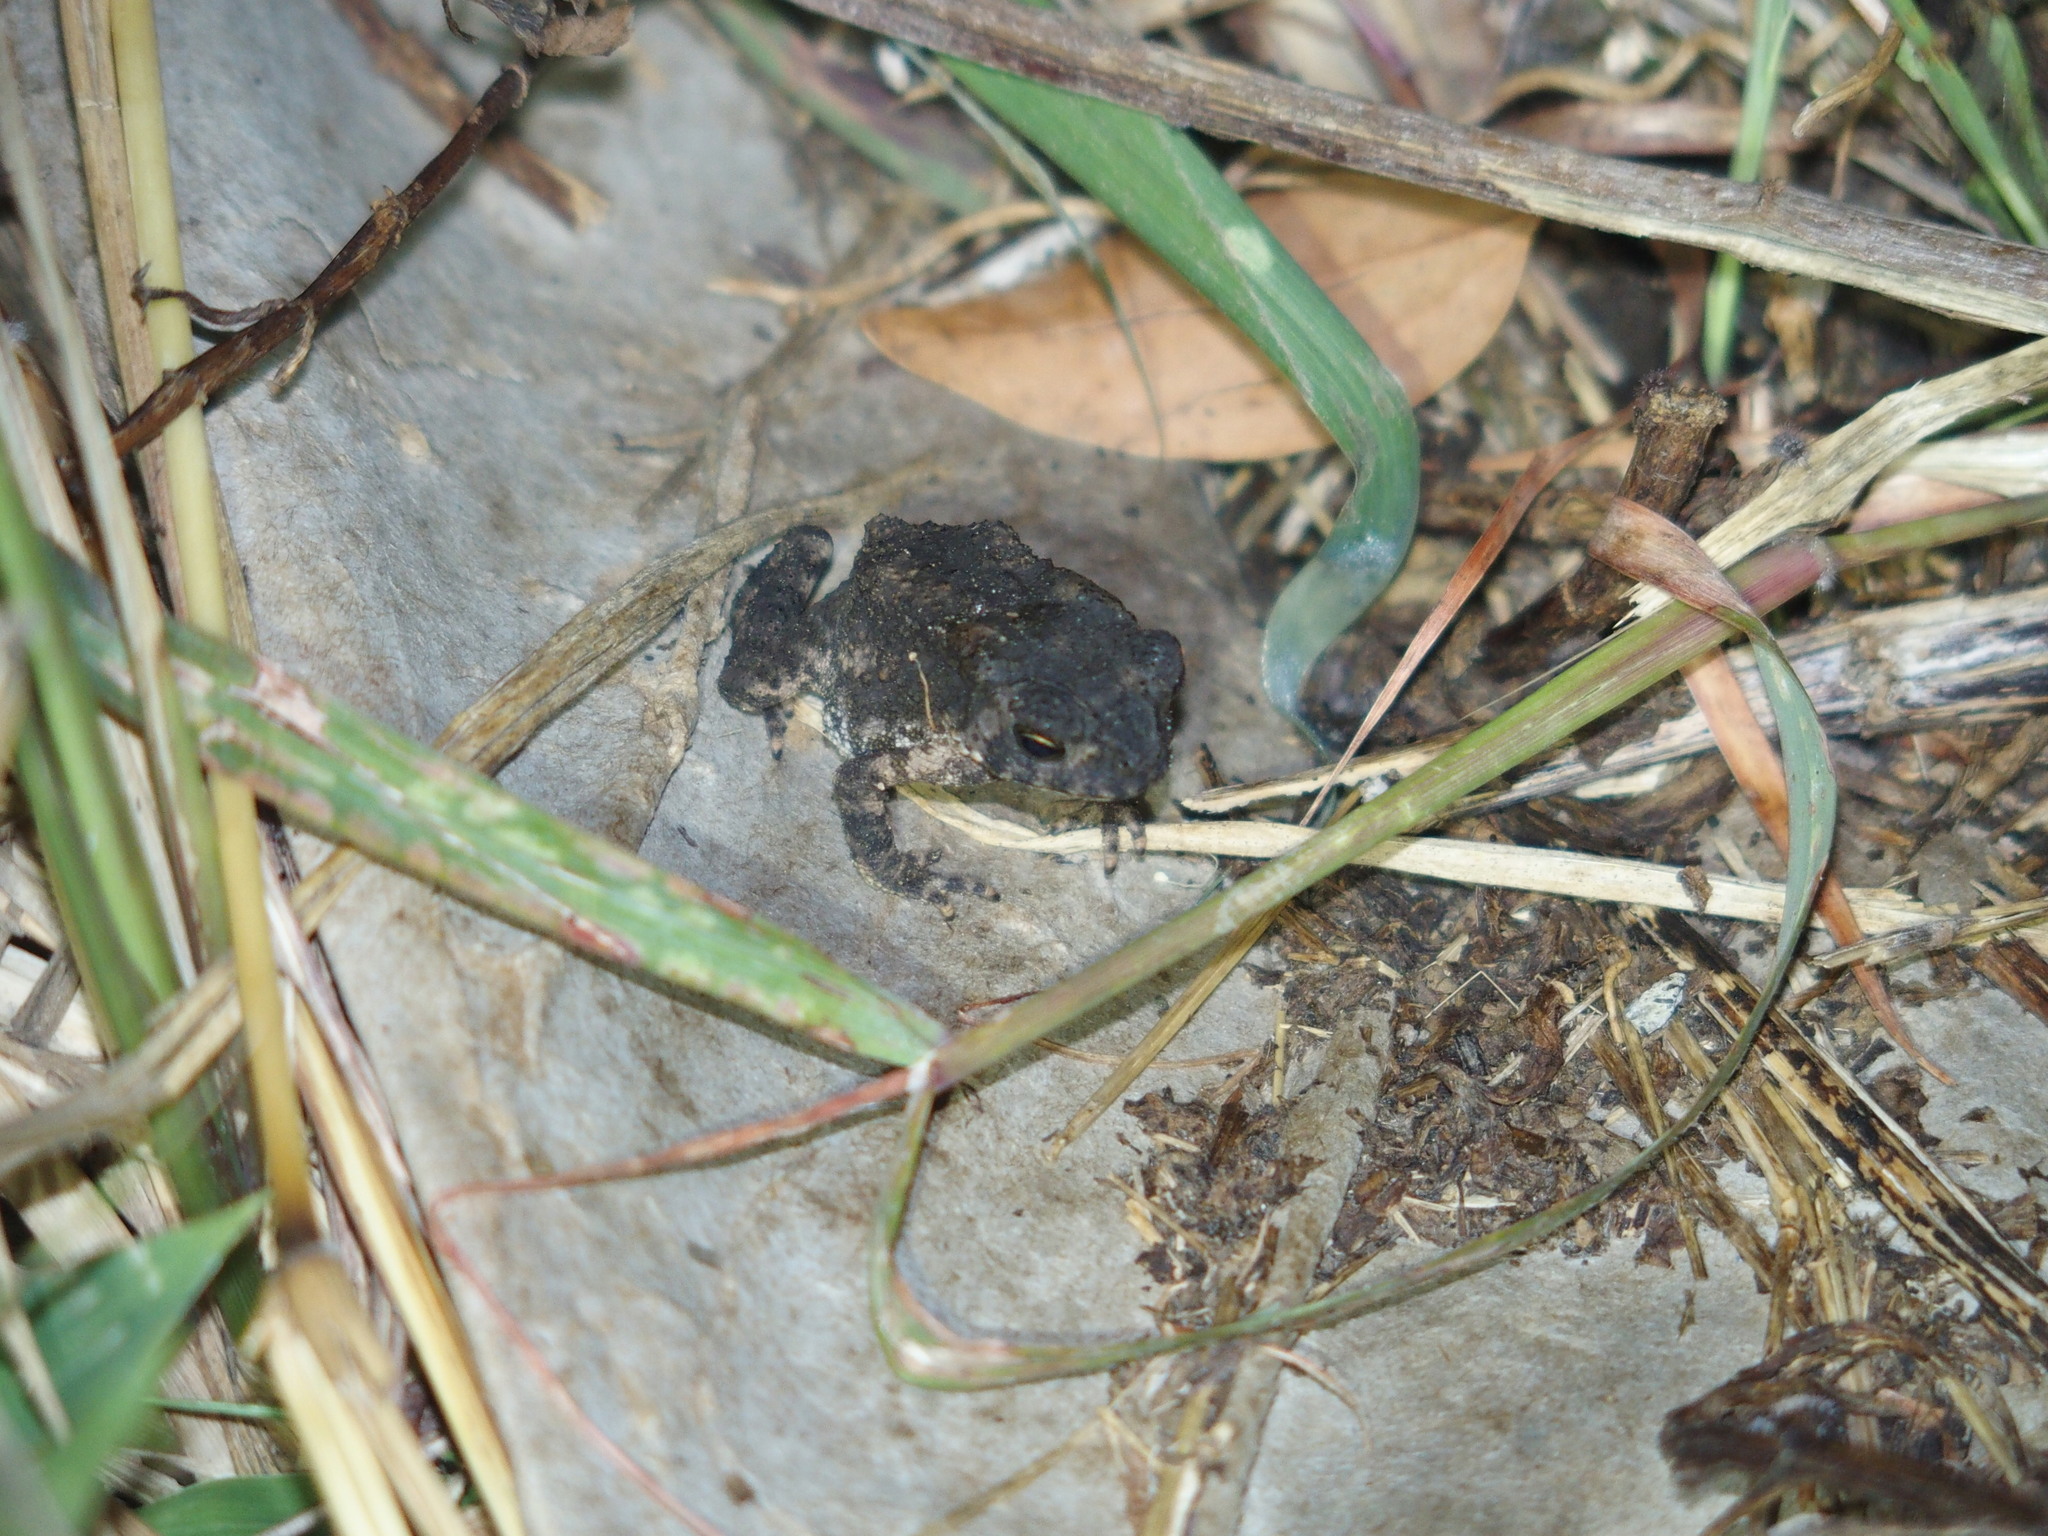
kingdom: Animalia
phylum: Chordata
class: Amphibia
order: Anura
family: Bufonidae
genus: Duttaphrynus
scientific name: Duttaphrynus melanostictus
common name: Common sunda toad
